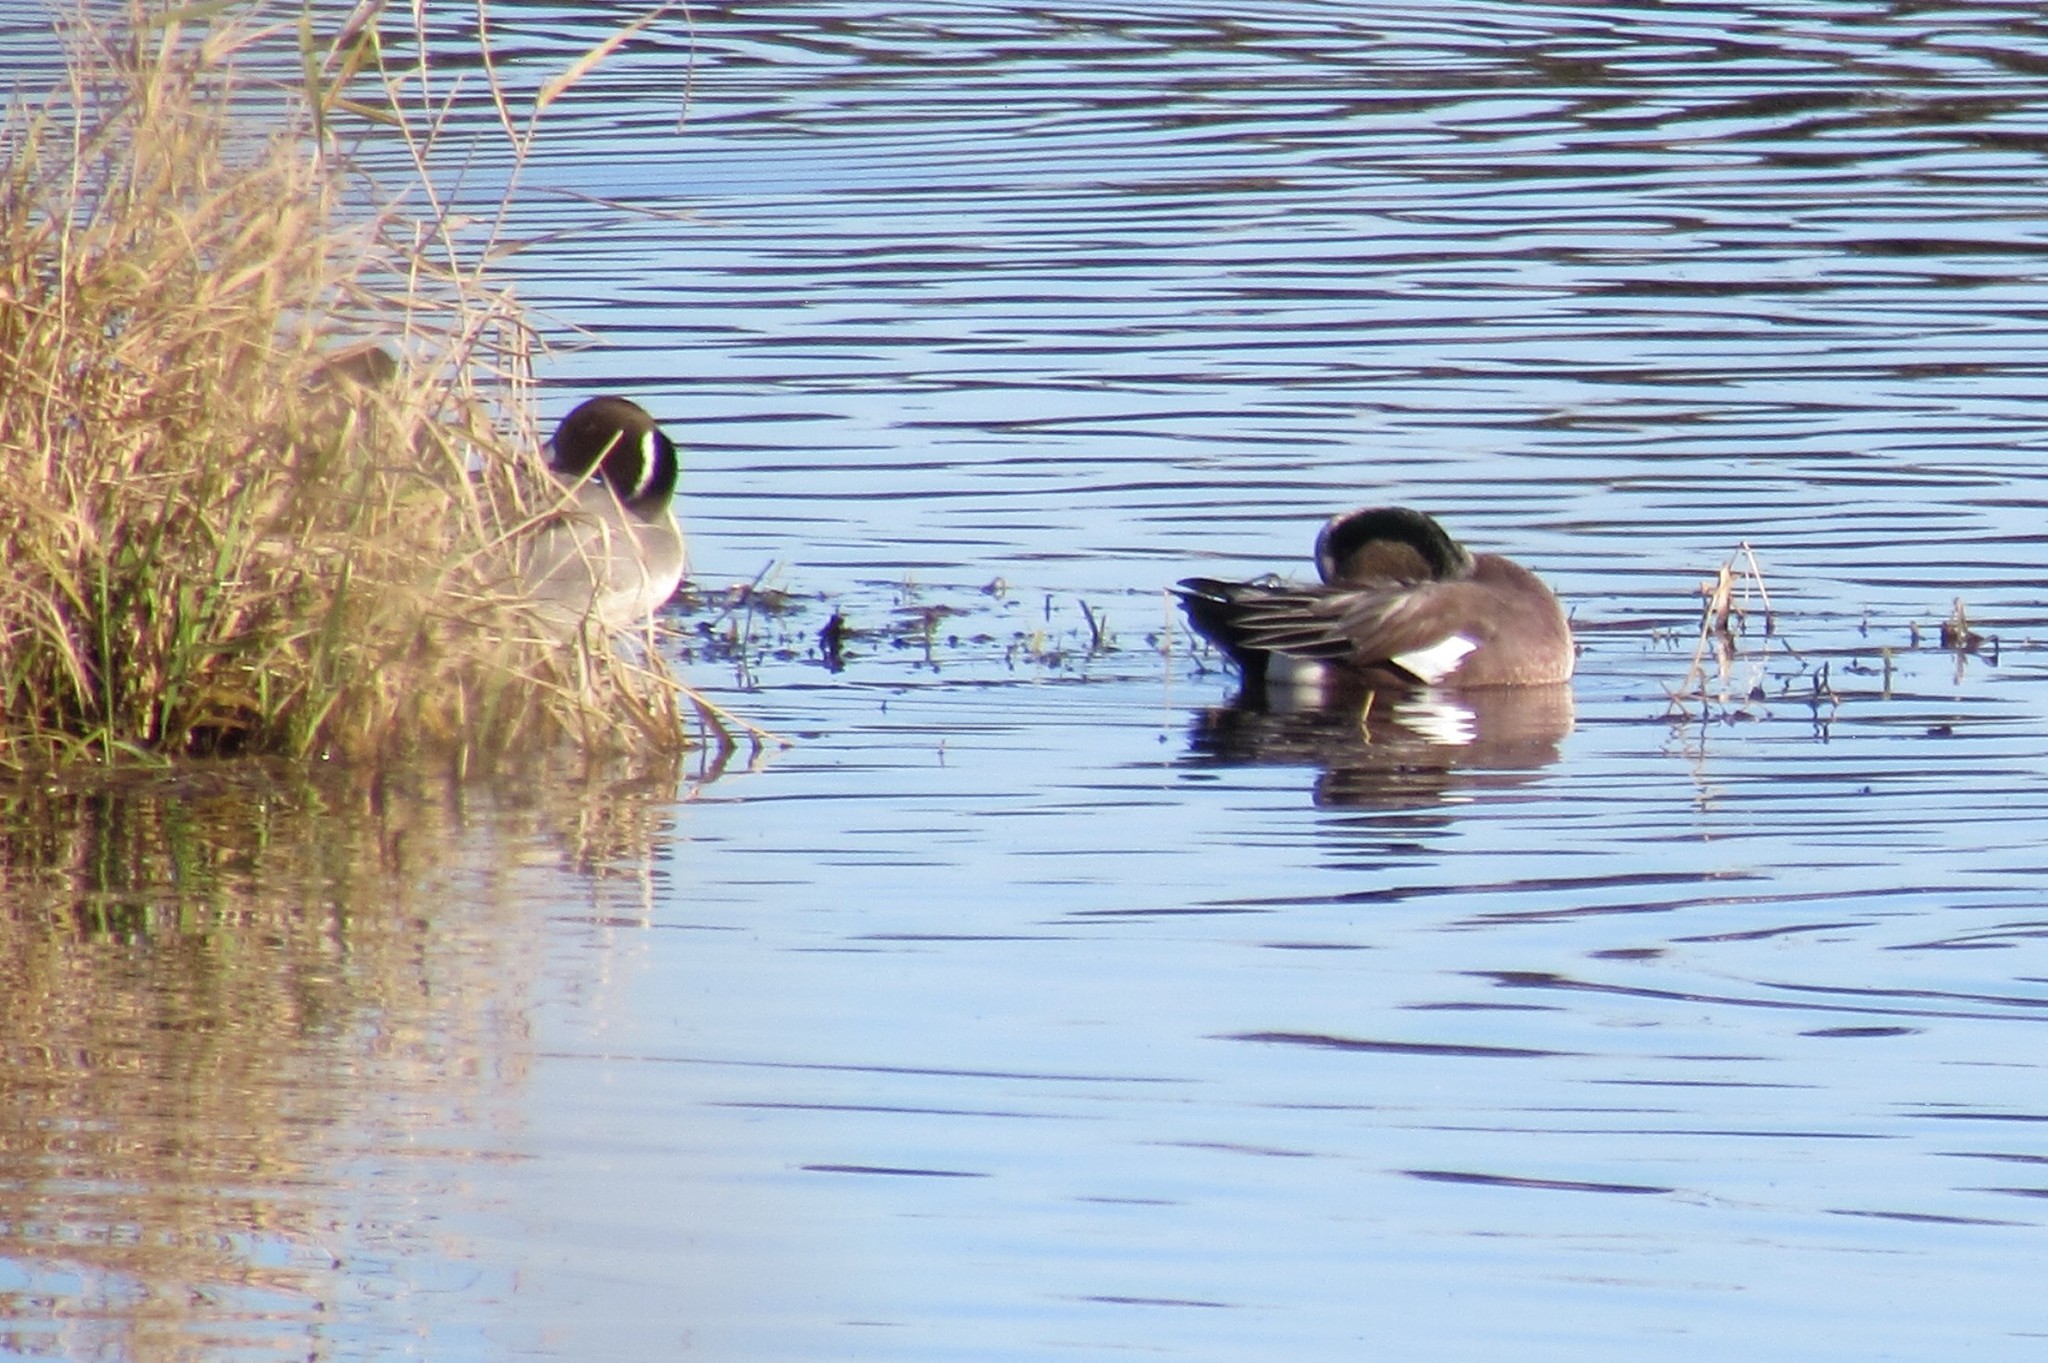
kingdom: Animalia
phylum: Chordata
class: Aves
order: Anseriformes
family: Anatidae
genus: Mareca
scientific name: Mareca americana
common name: American wigeon
